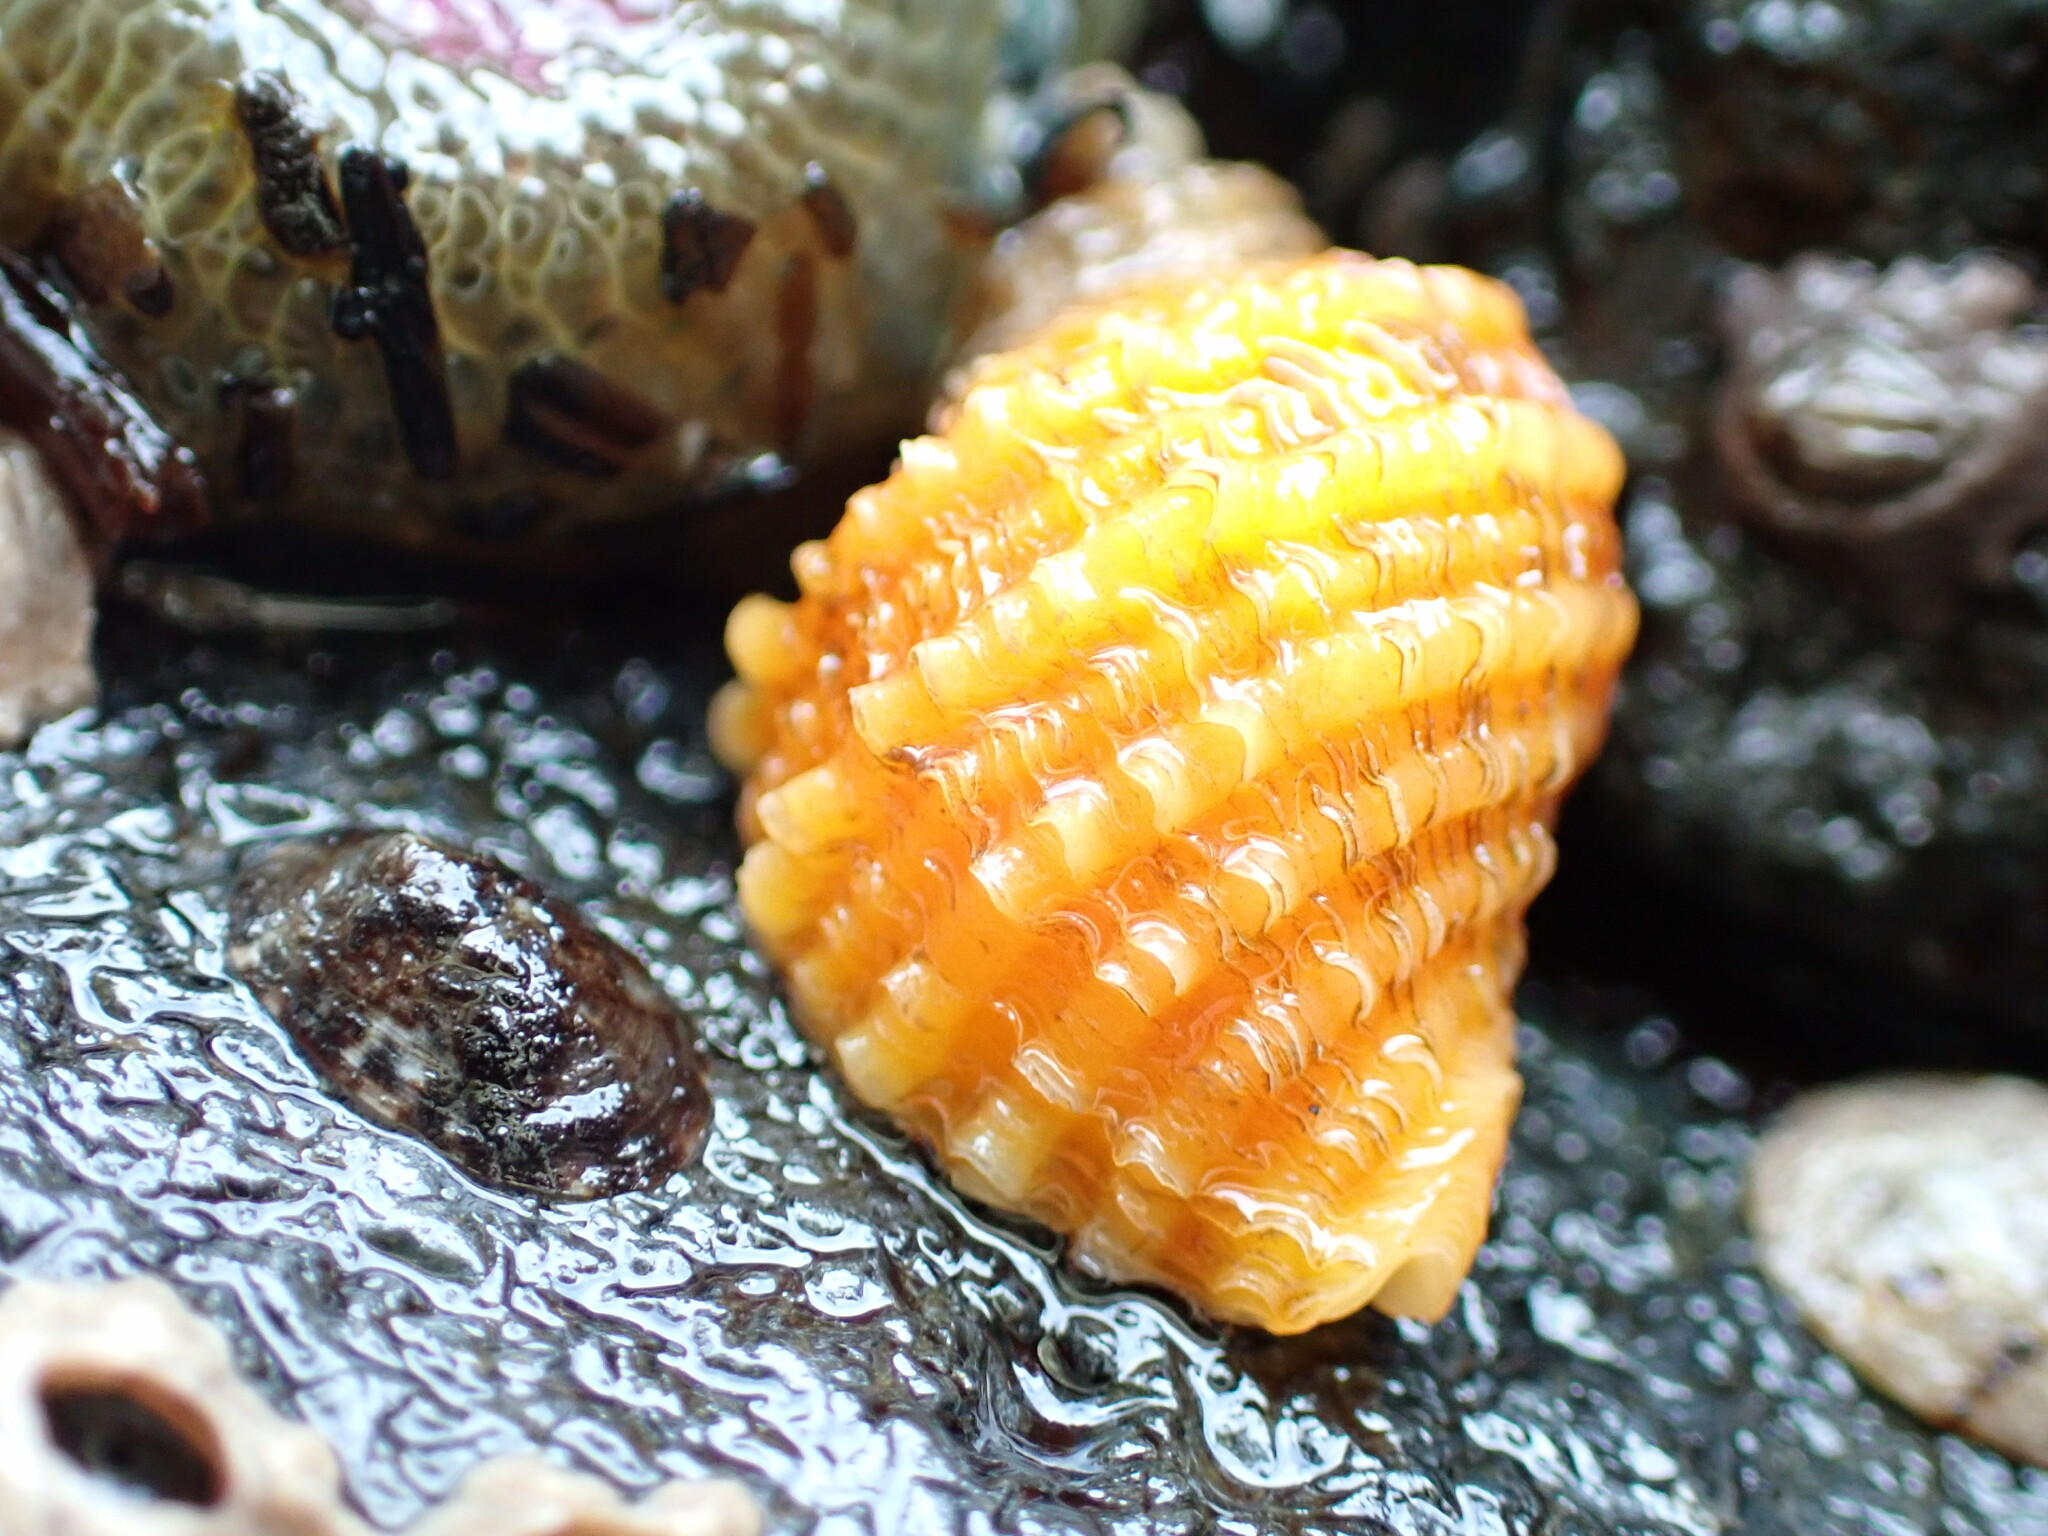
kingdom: Animalia
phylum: Mollusca
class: Gastropoda
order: Neogastropoda
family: Muricidae
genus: Nucella
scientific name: Nucella ostrina
